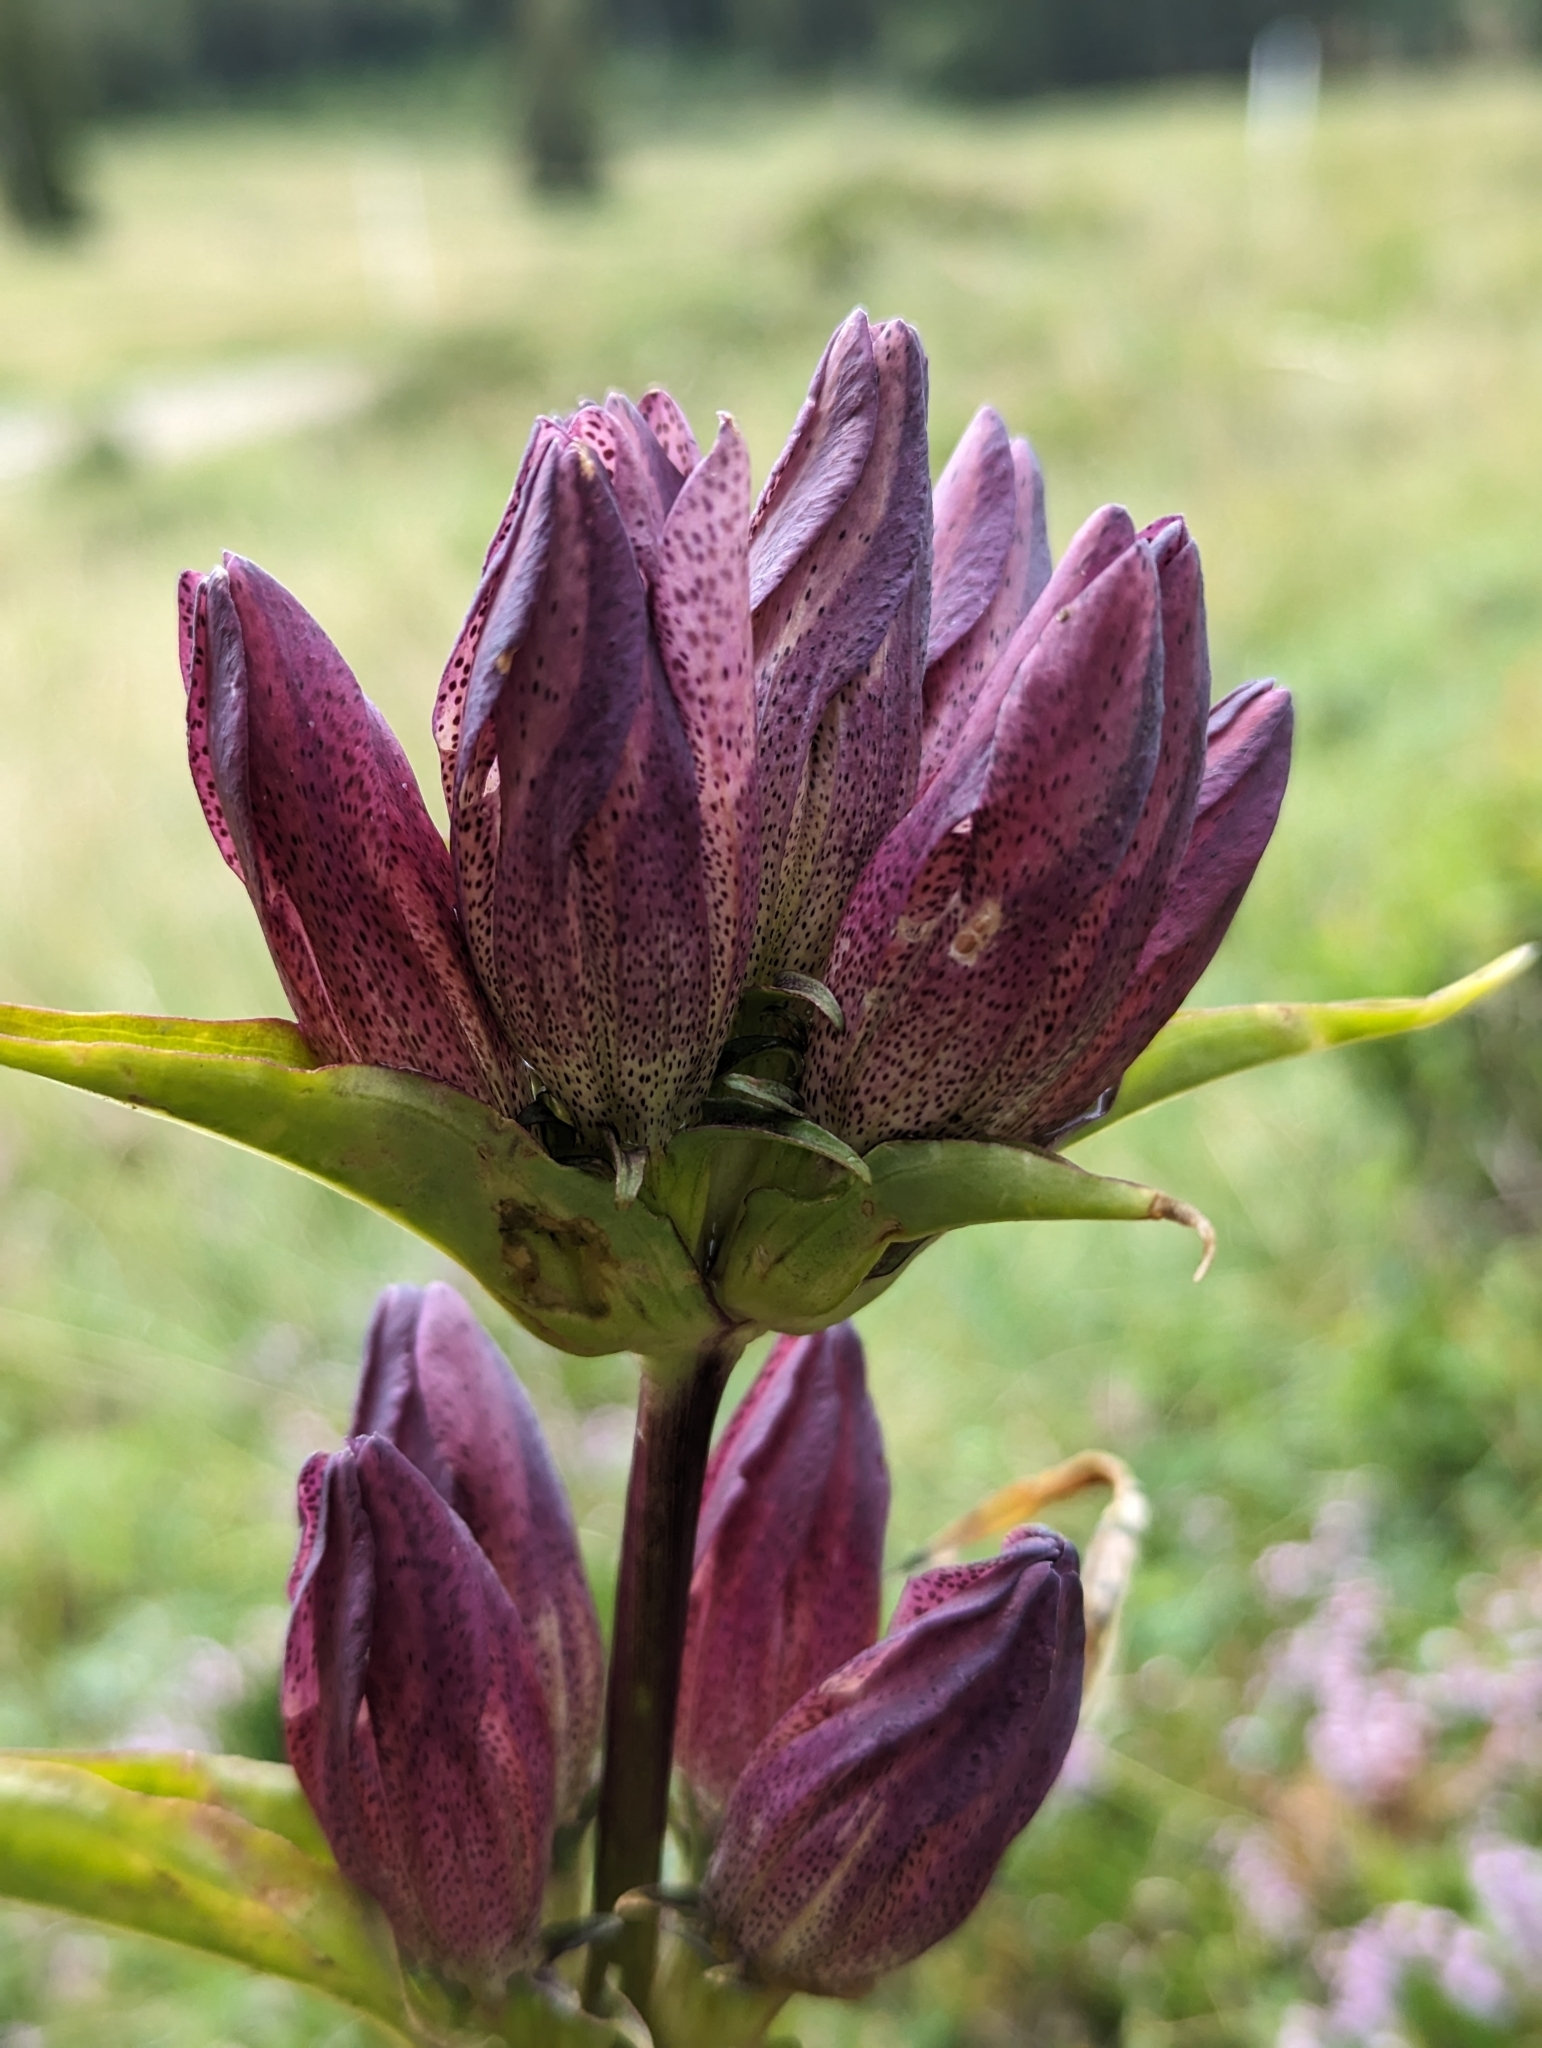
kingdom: Plantae
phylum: Tracheophyta
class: Magnoliopsida
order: Gentianales
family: Gentianaceae
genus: Gentiana
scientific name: Gentiana pannonica
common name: Hungarian gentian
